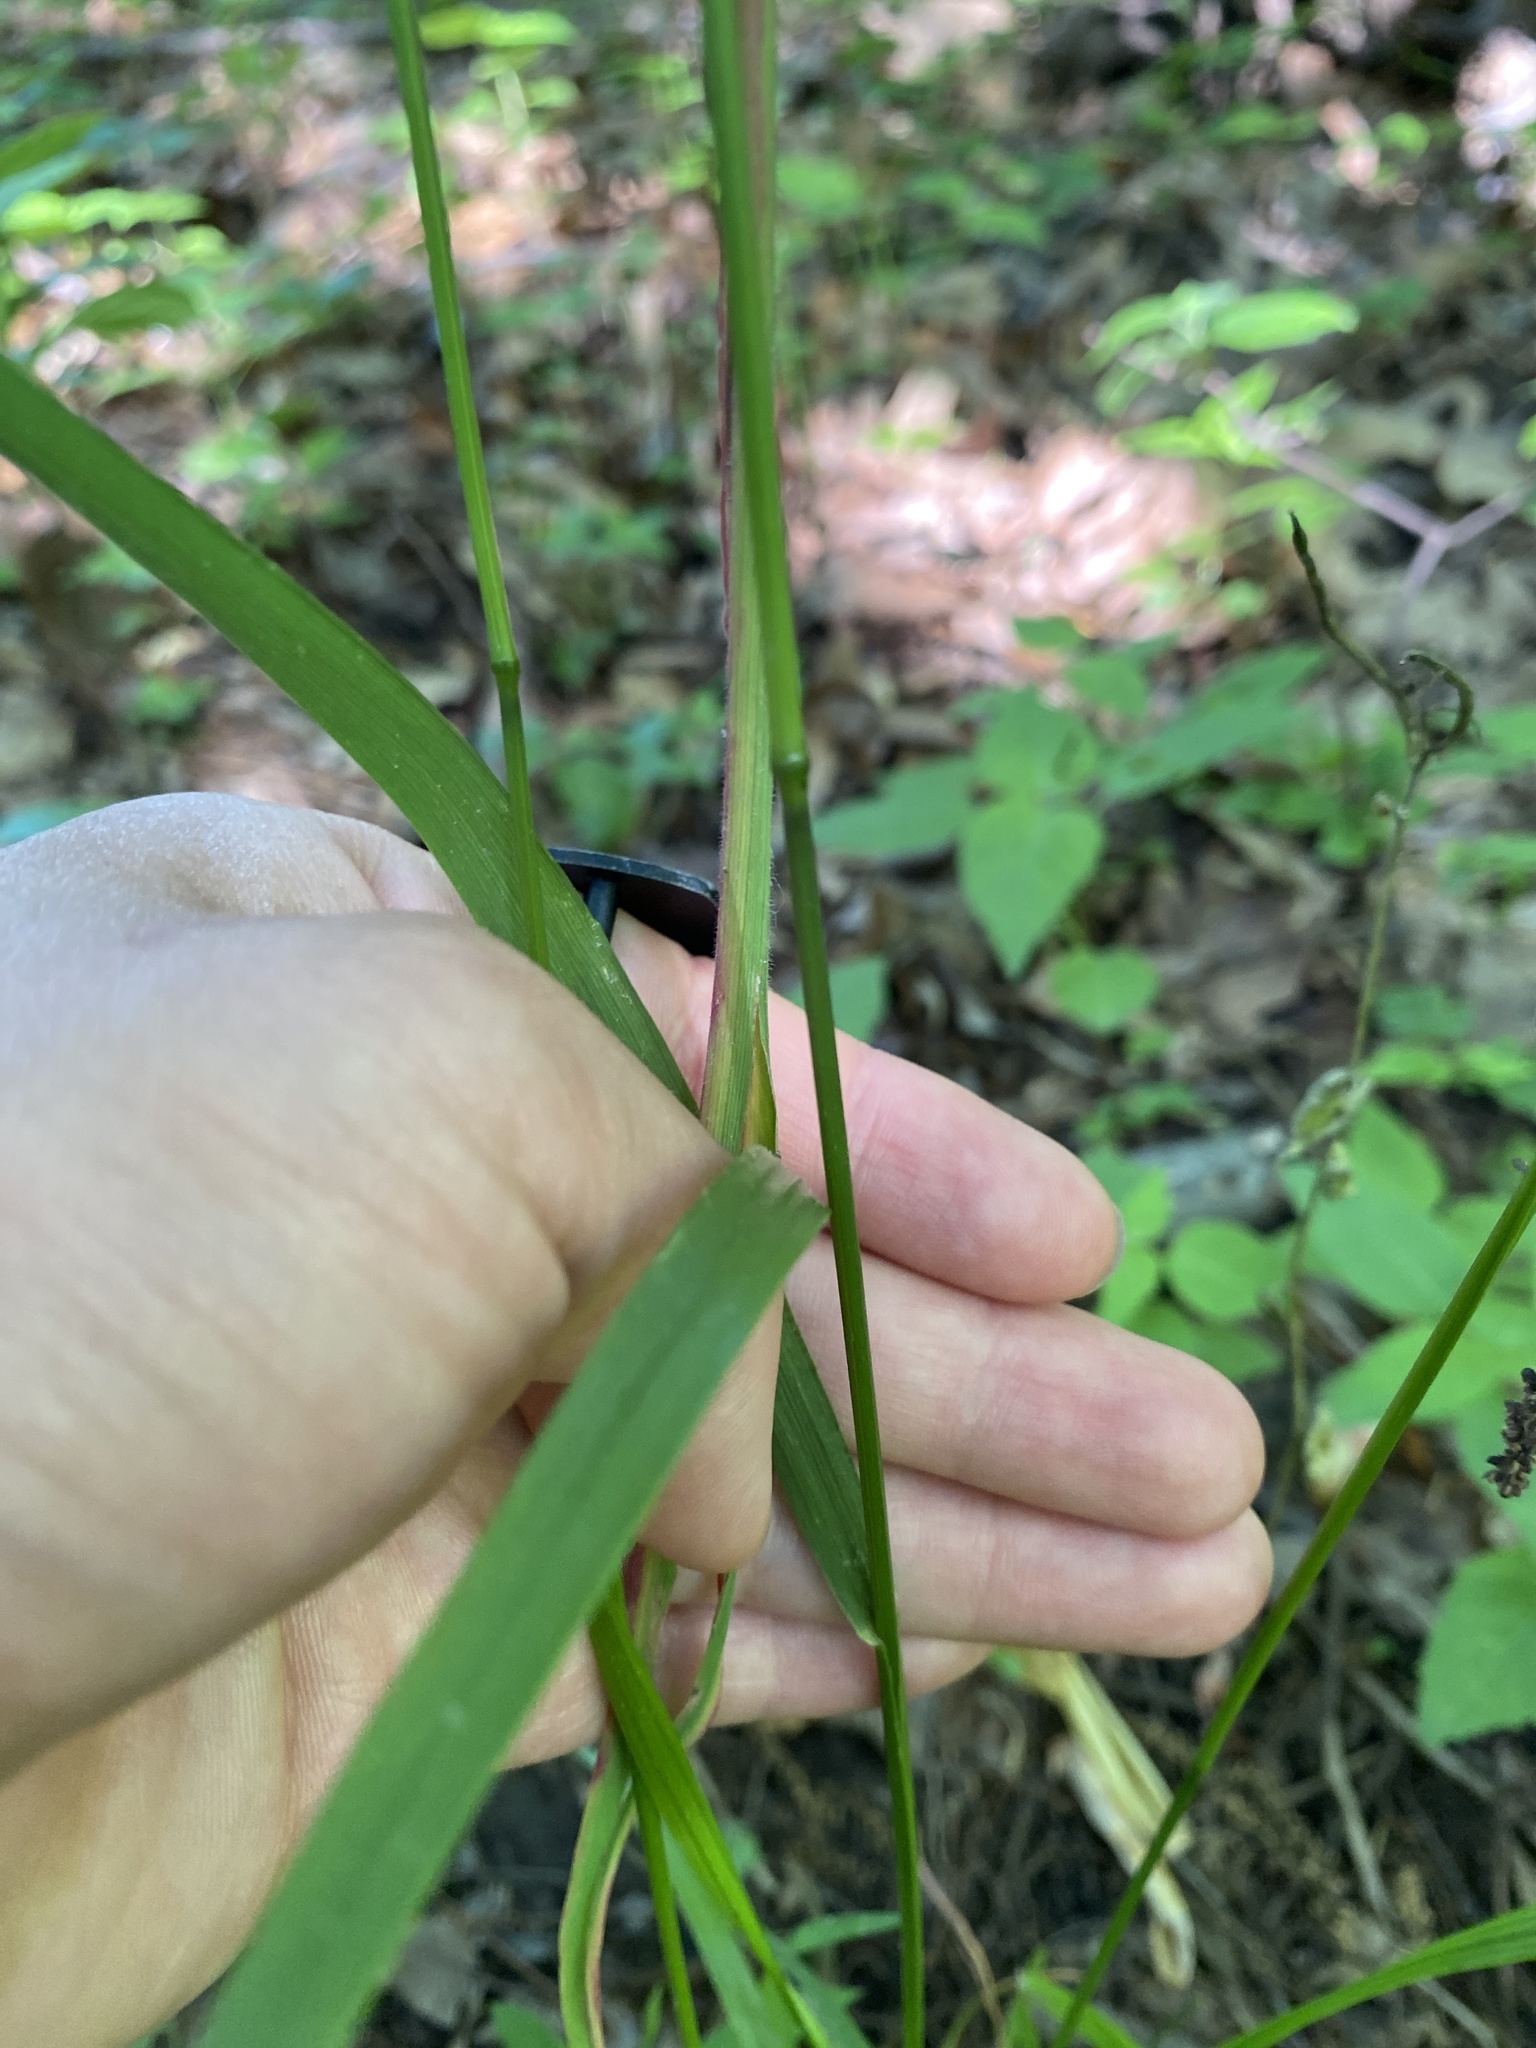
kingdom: Plantae
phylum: Tracheophyta
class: Liliopsida
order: Poales
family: Poaceae
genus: Festuca
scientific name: Festuca subverticillata
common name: Nodding fescue
